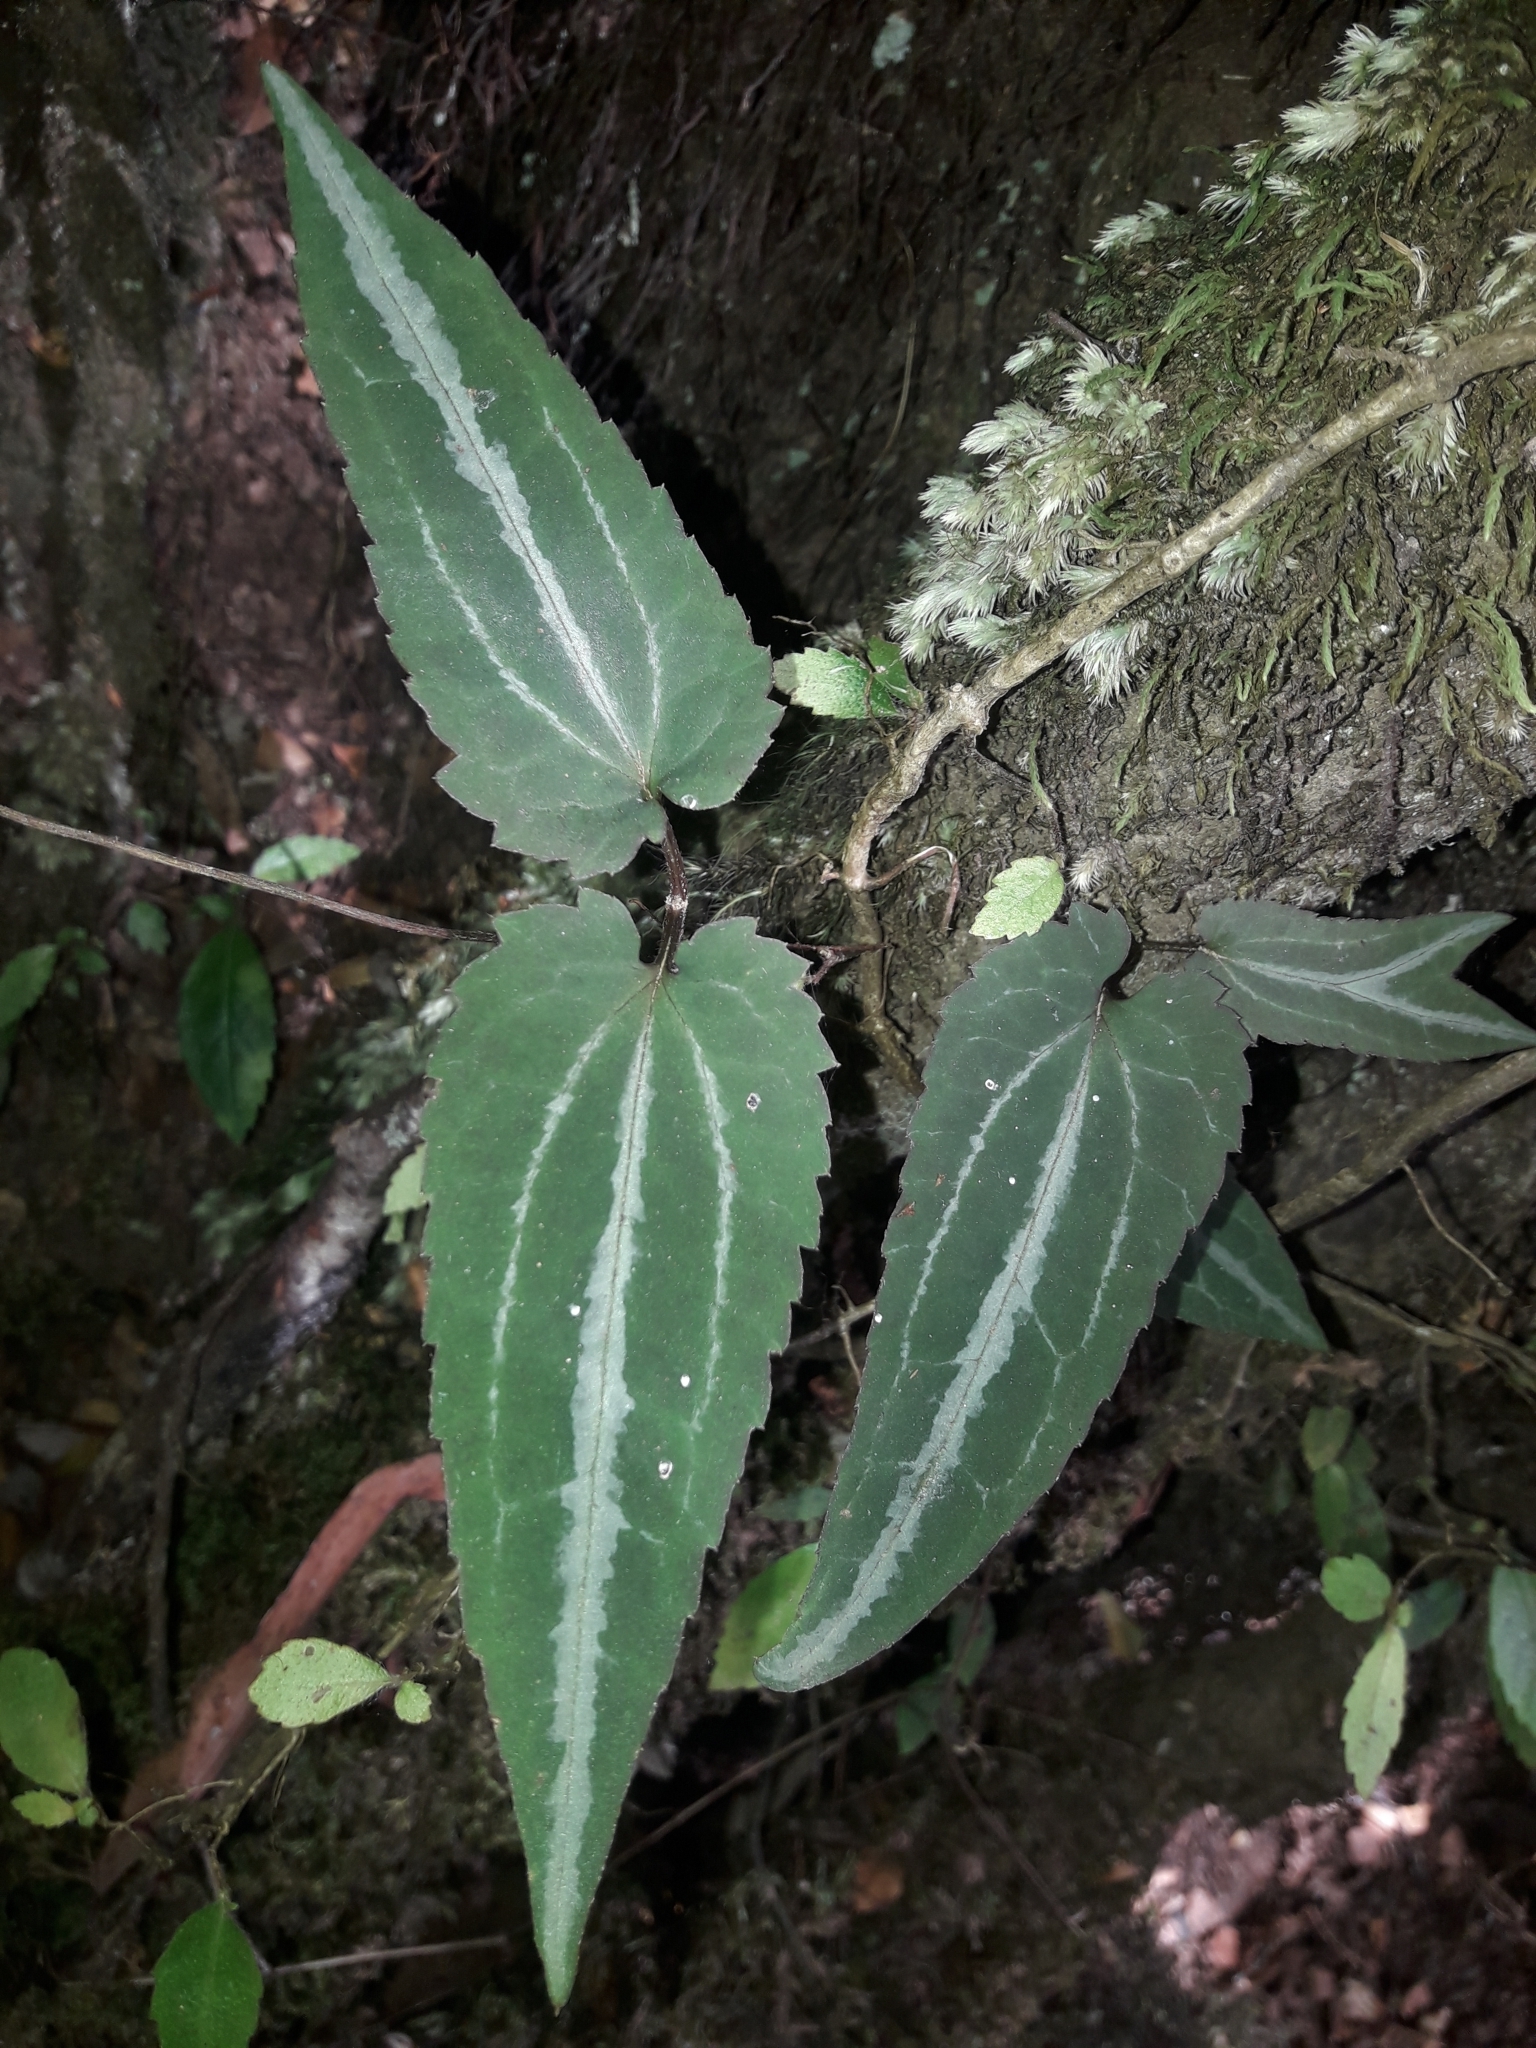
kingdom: Plantae
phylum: Tracheophyta
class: Magnoliopsida
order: Ranunculales
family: Ranunculaceae
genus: Clematis
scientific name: Clematis aristata
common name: Mountain clematis
